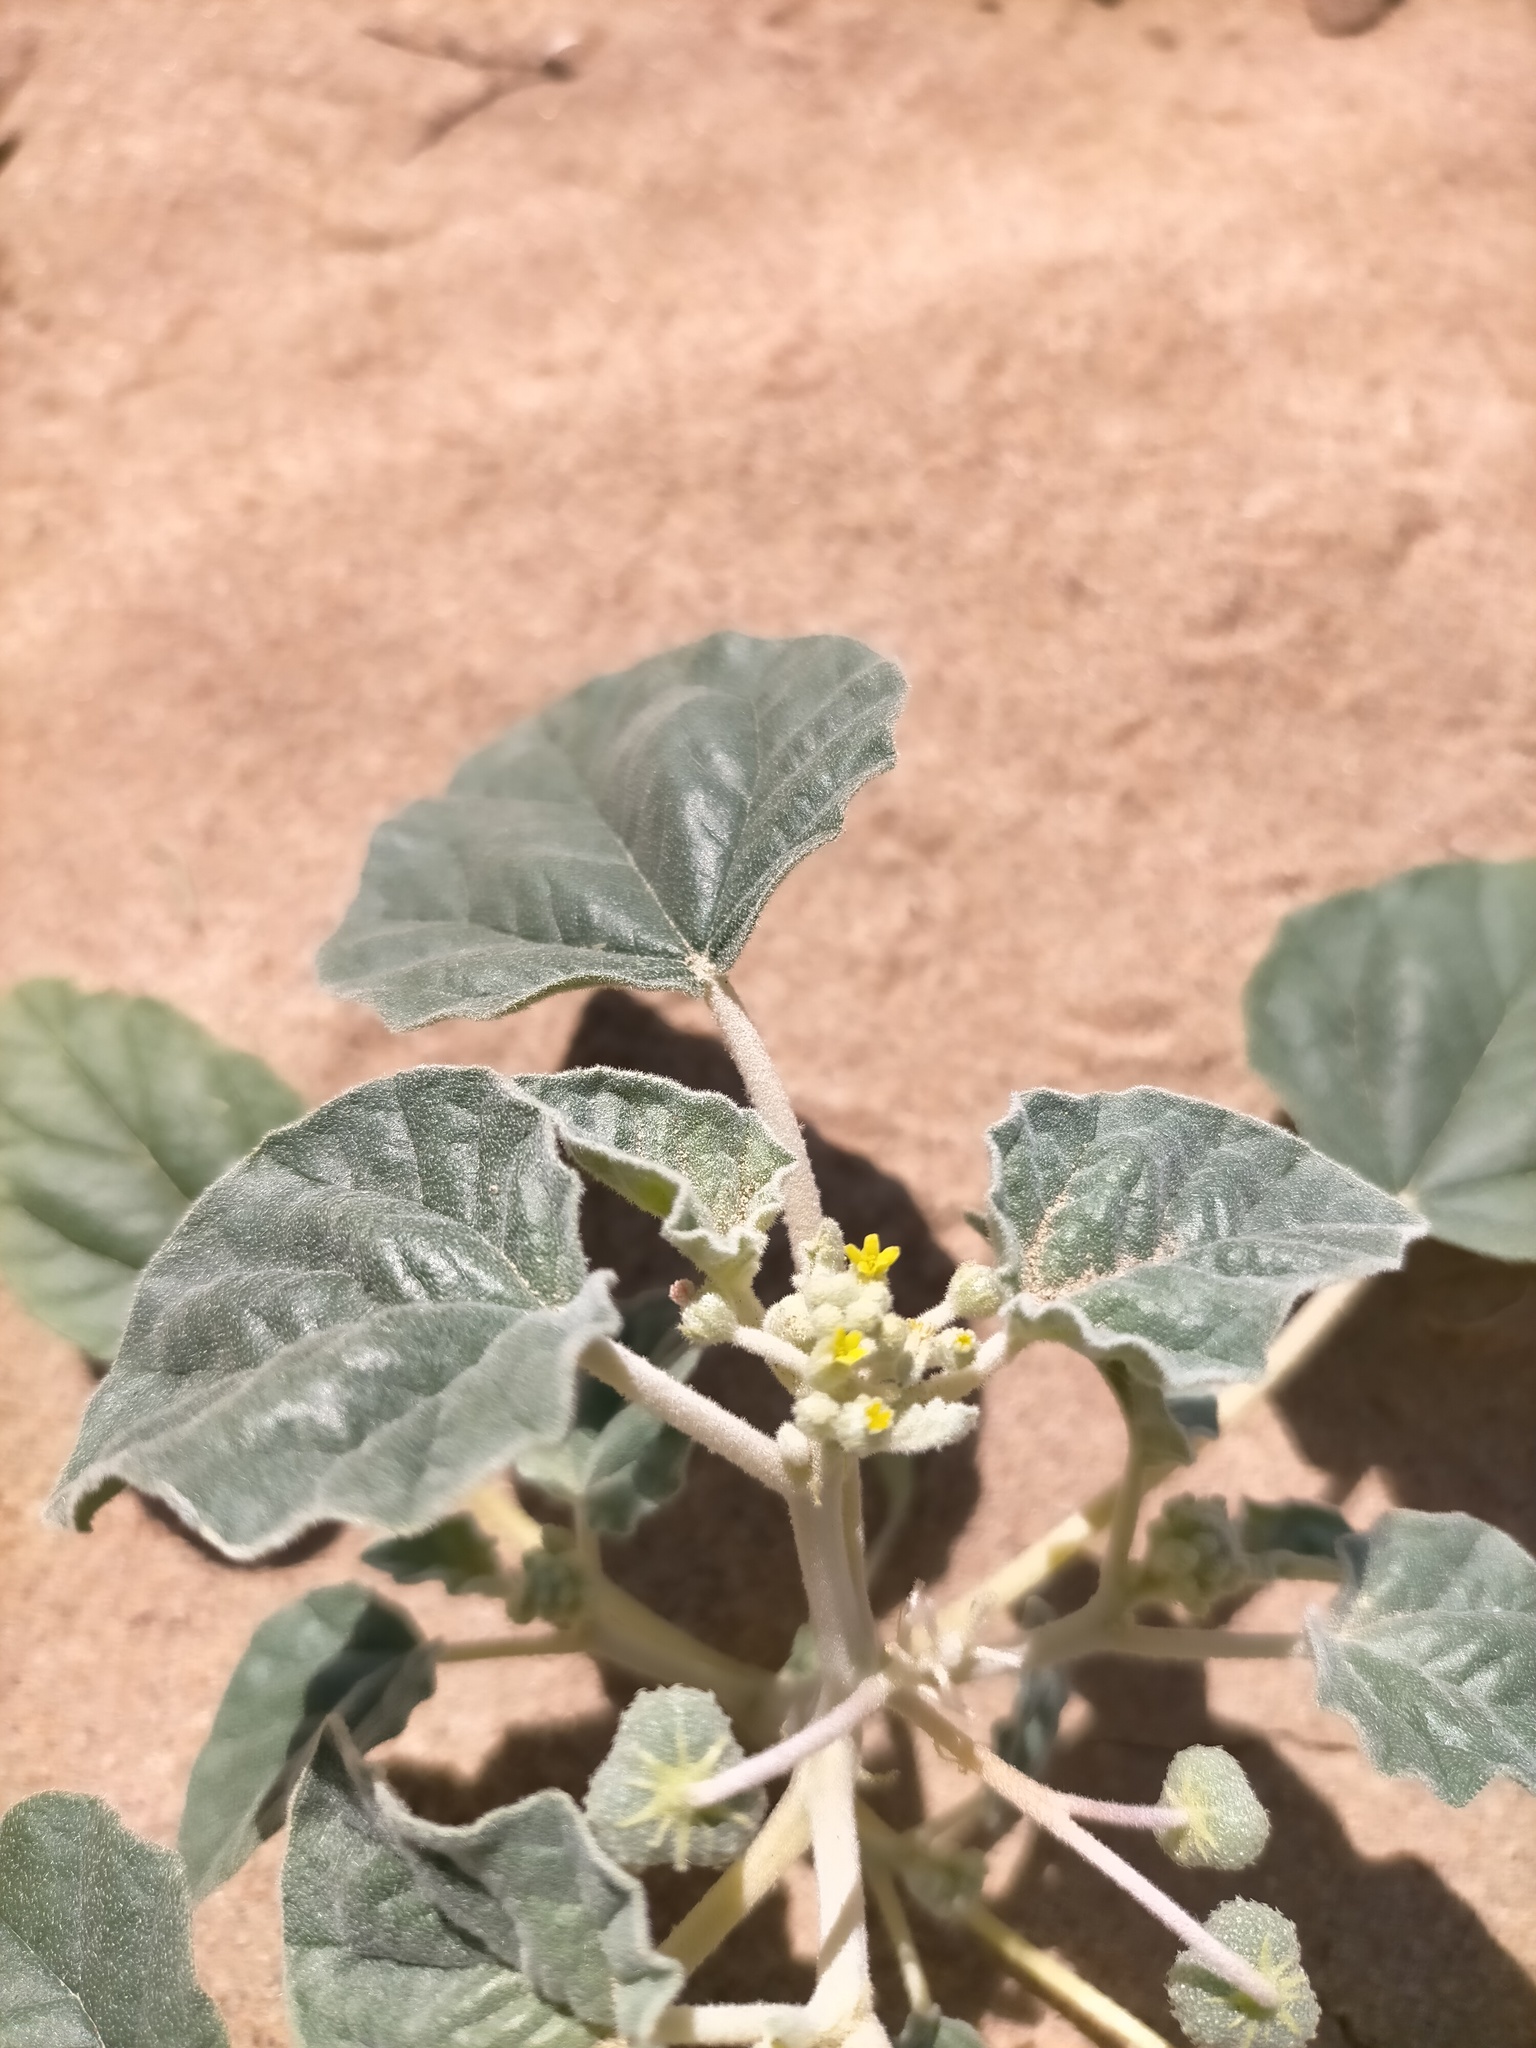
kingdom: Plantae
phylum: Tracheophyta
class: Magnoliopsida
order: Malpighiales
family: Euphorbiaceae
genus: Chrozophora
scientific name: Chrozophora tinctoria
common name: Dyer's litmus
